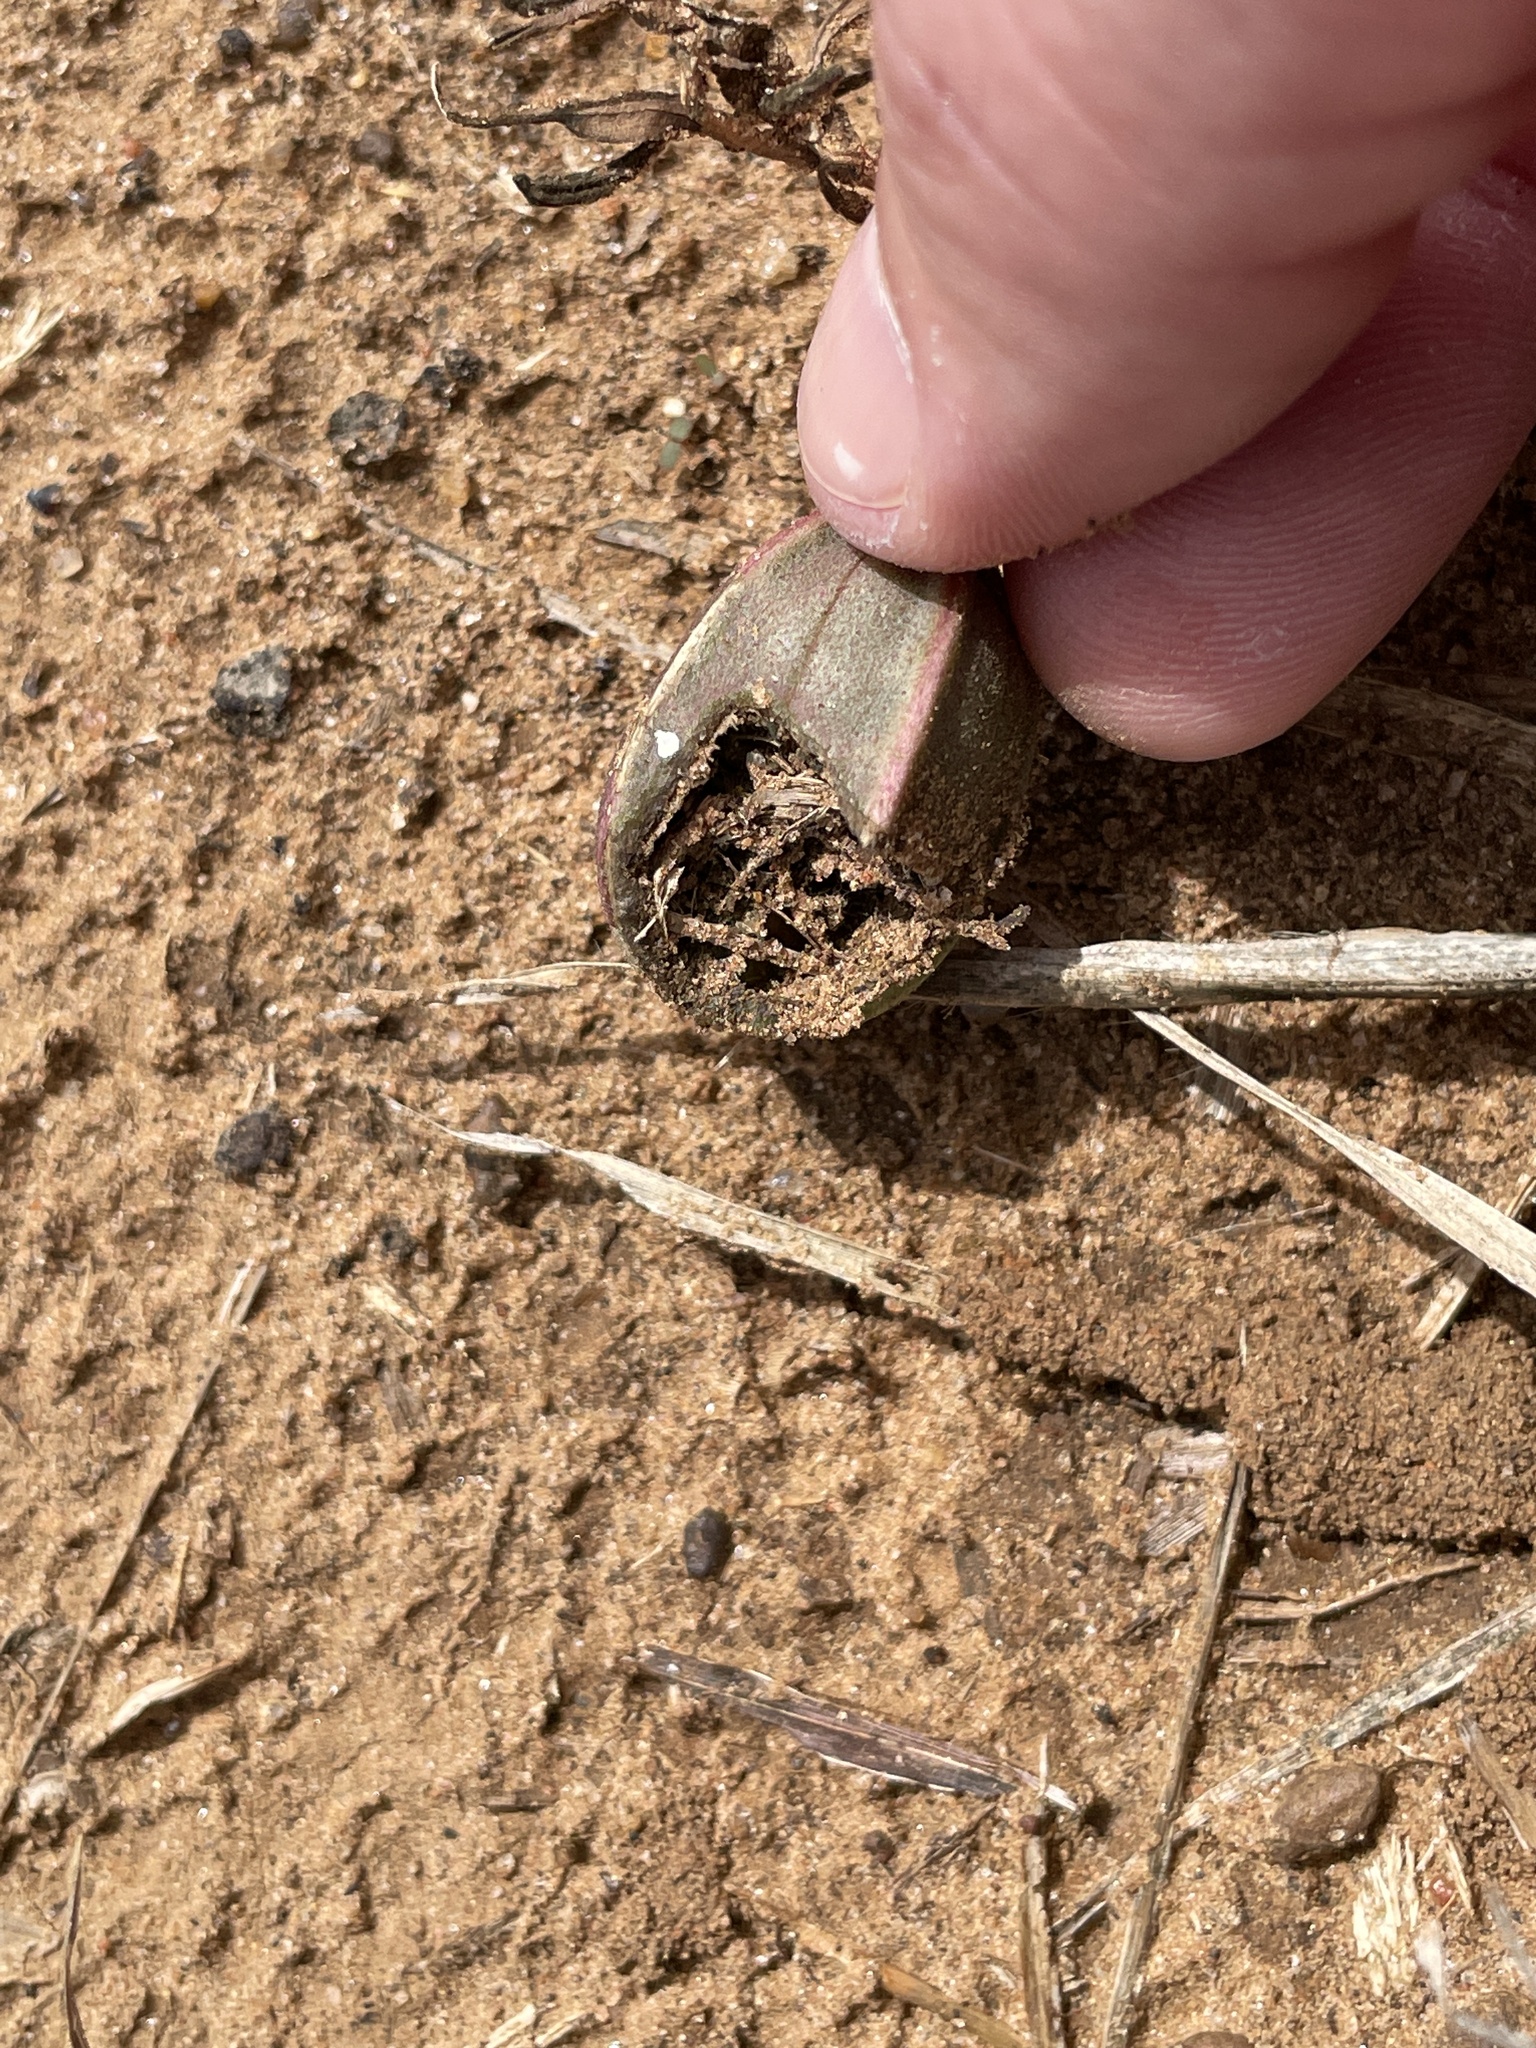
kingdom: Plantae
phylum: Tracheophyta
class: Magnoliopsida
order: Piperales
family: Aristolochiaceae
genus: Aristolochia
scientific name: Aristolochia erecta
